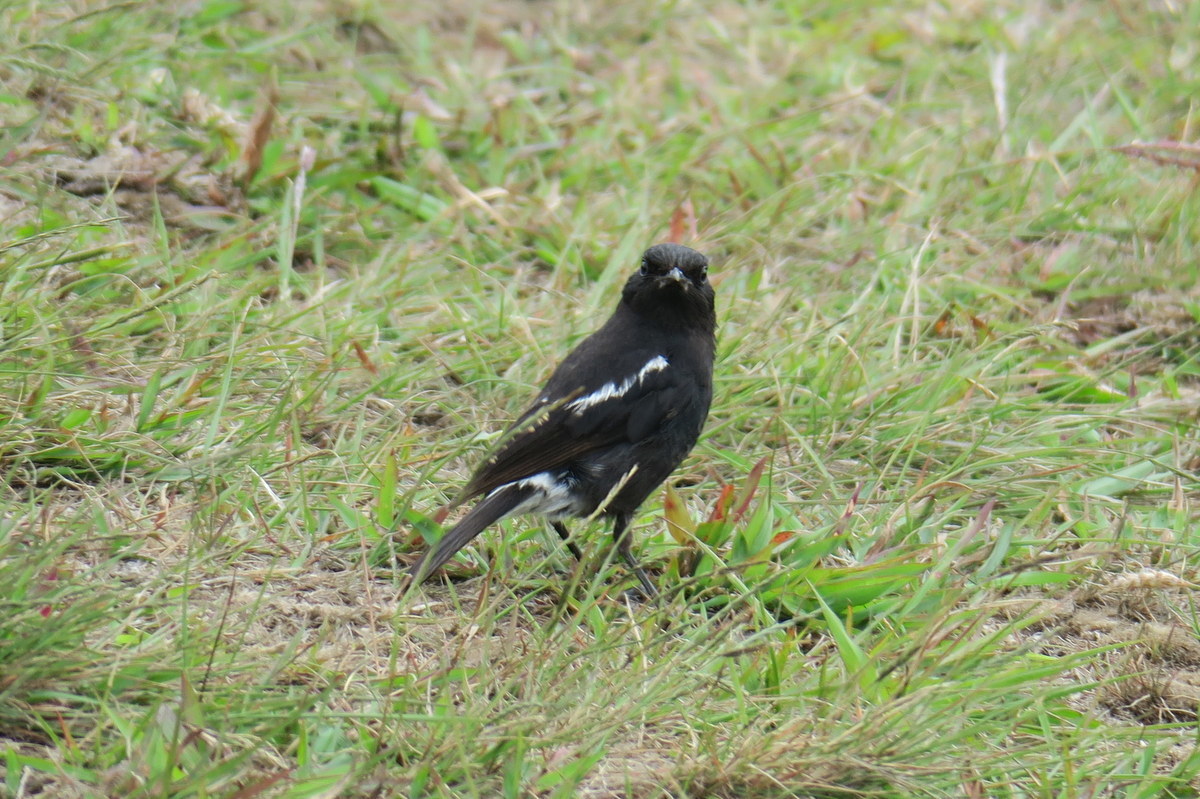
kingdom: Animalia
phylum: Chordata
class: Aves
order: Passeriformes
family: Muscicapidae
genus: Saxicola
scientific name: Saxicola caprata
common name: Pied bush chat
